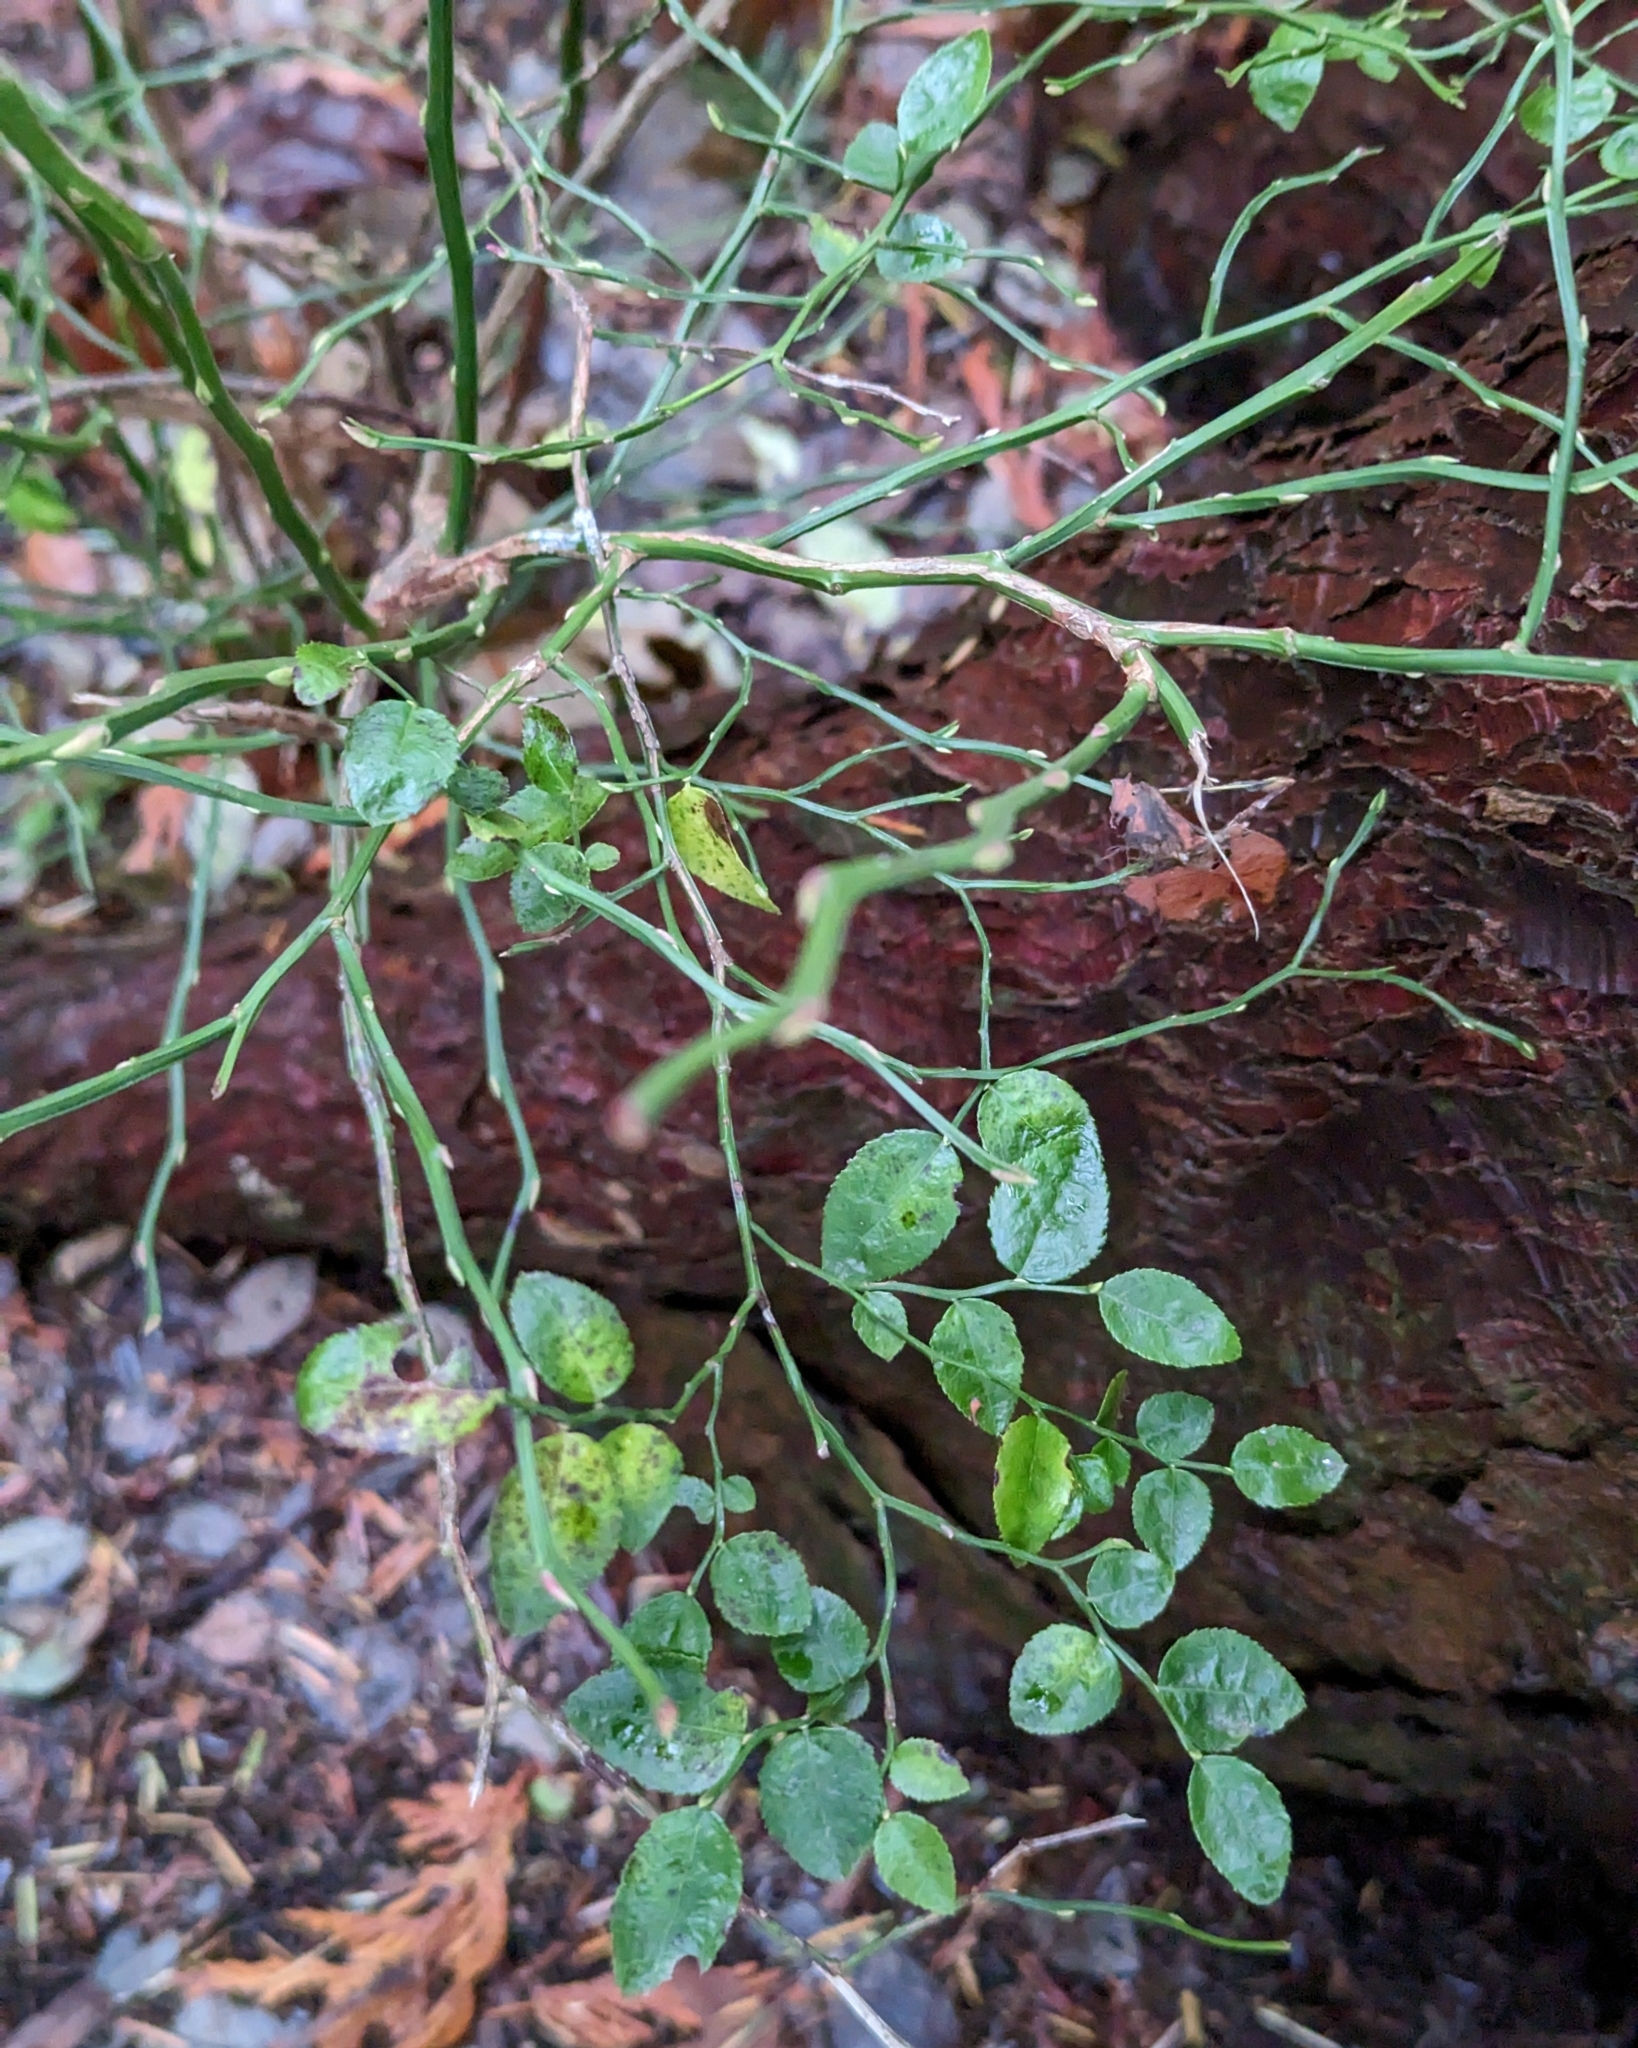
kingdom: Plantae
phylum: Tracheophyta
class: Magnoliopsida
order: Ericales
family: Ericaceae
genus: Vaccinium
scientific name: Vaccinium parvifolium
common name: Red-huckleberry
